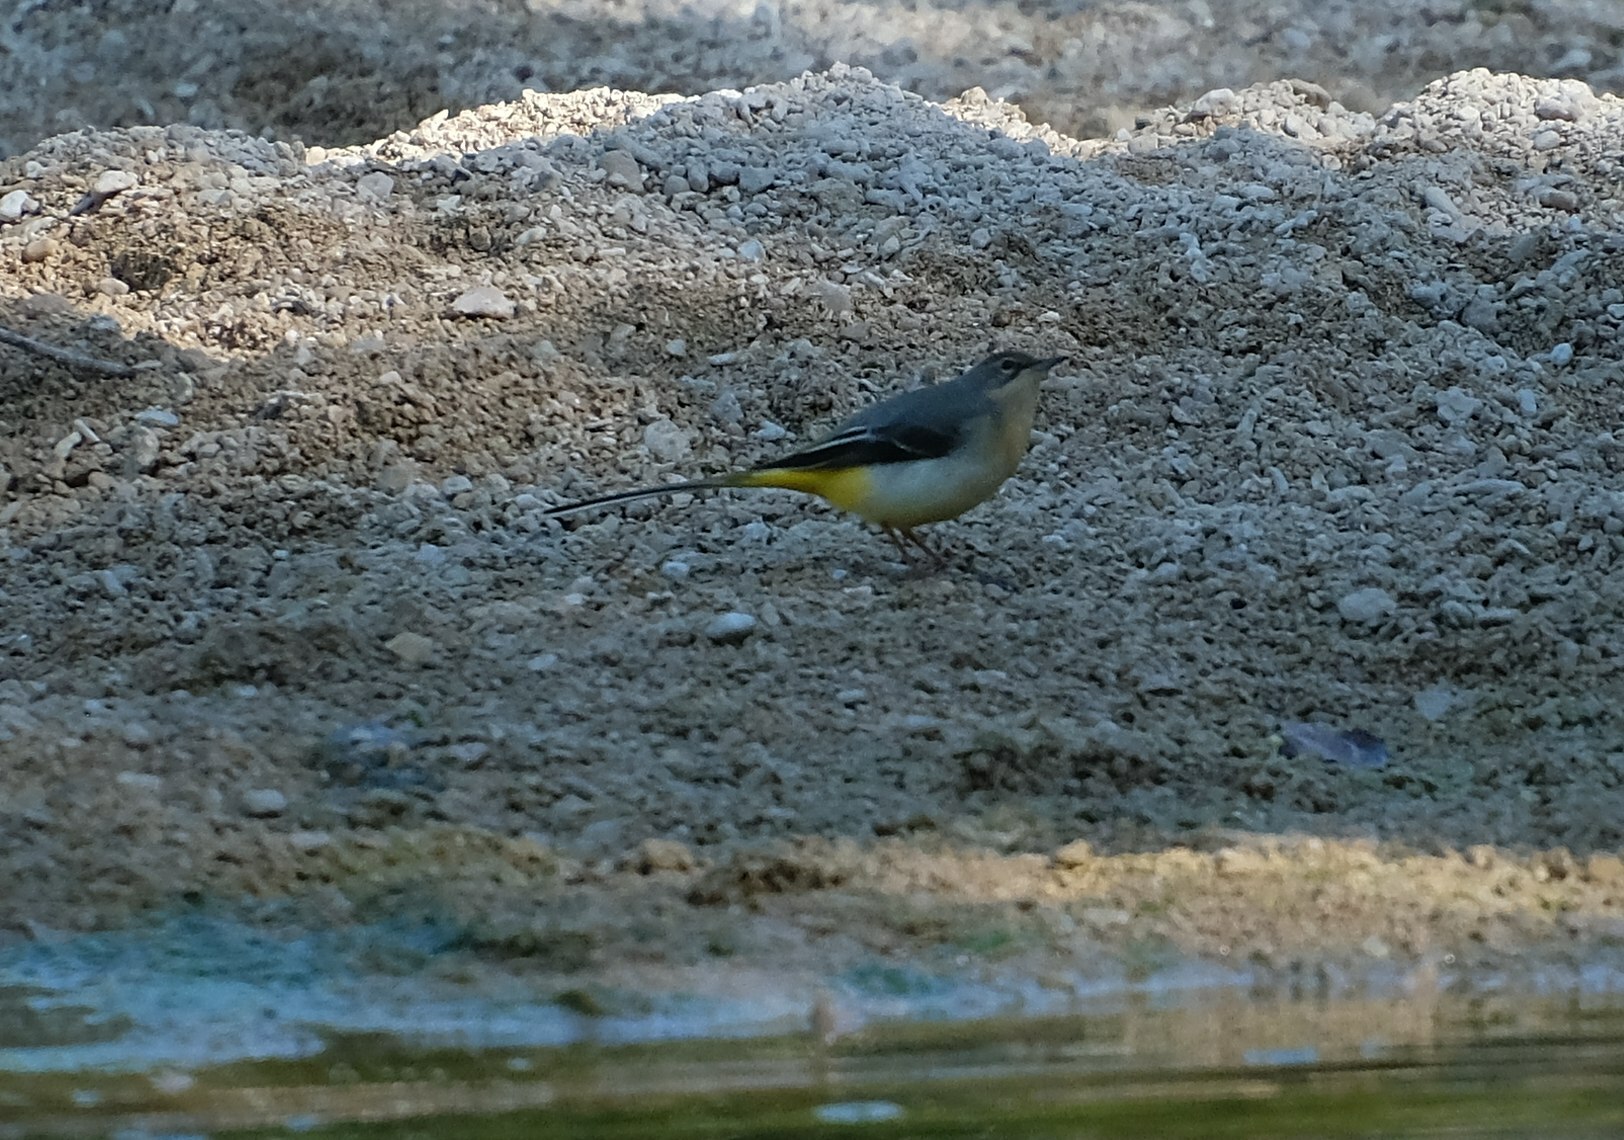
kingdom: Animalia
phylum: Chordata
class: Aves
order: Passeriformes
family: Motacillidae
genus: Motacilla
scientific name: Motacilla cinerea
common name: Grey wagtail
